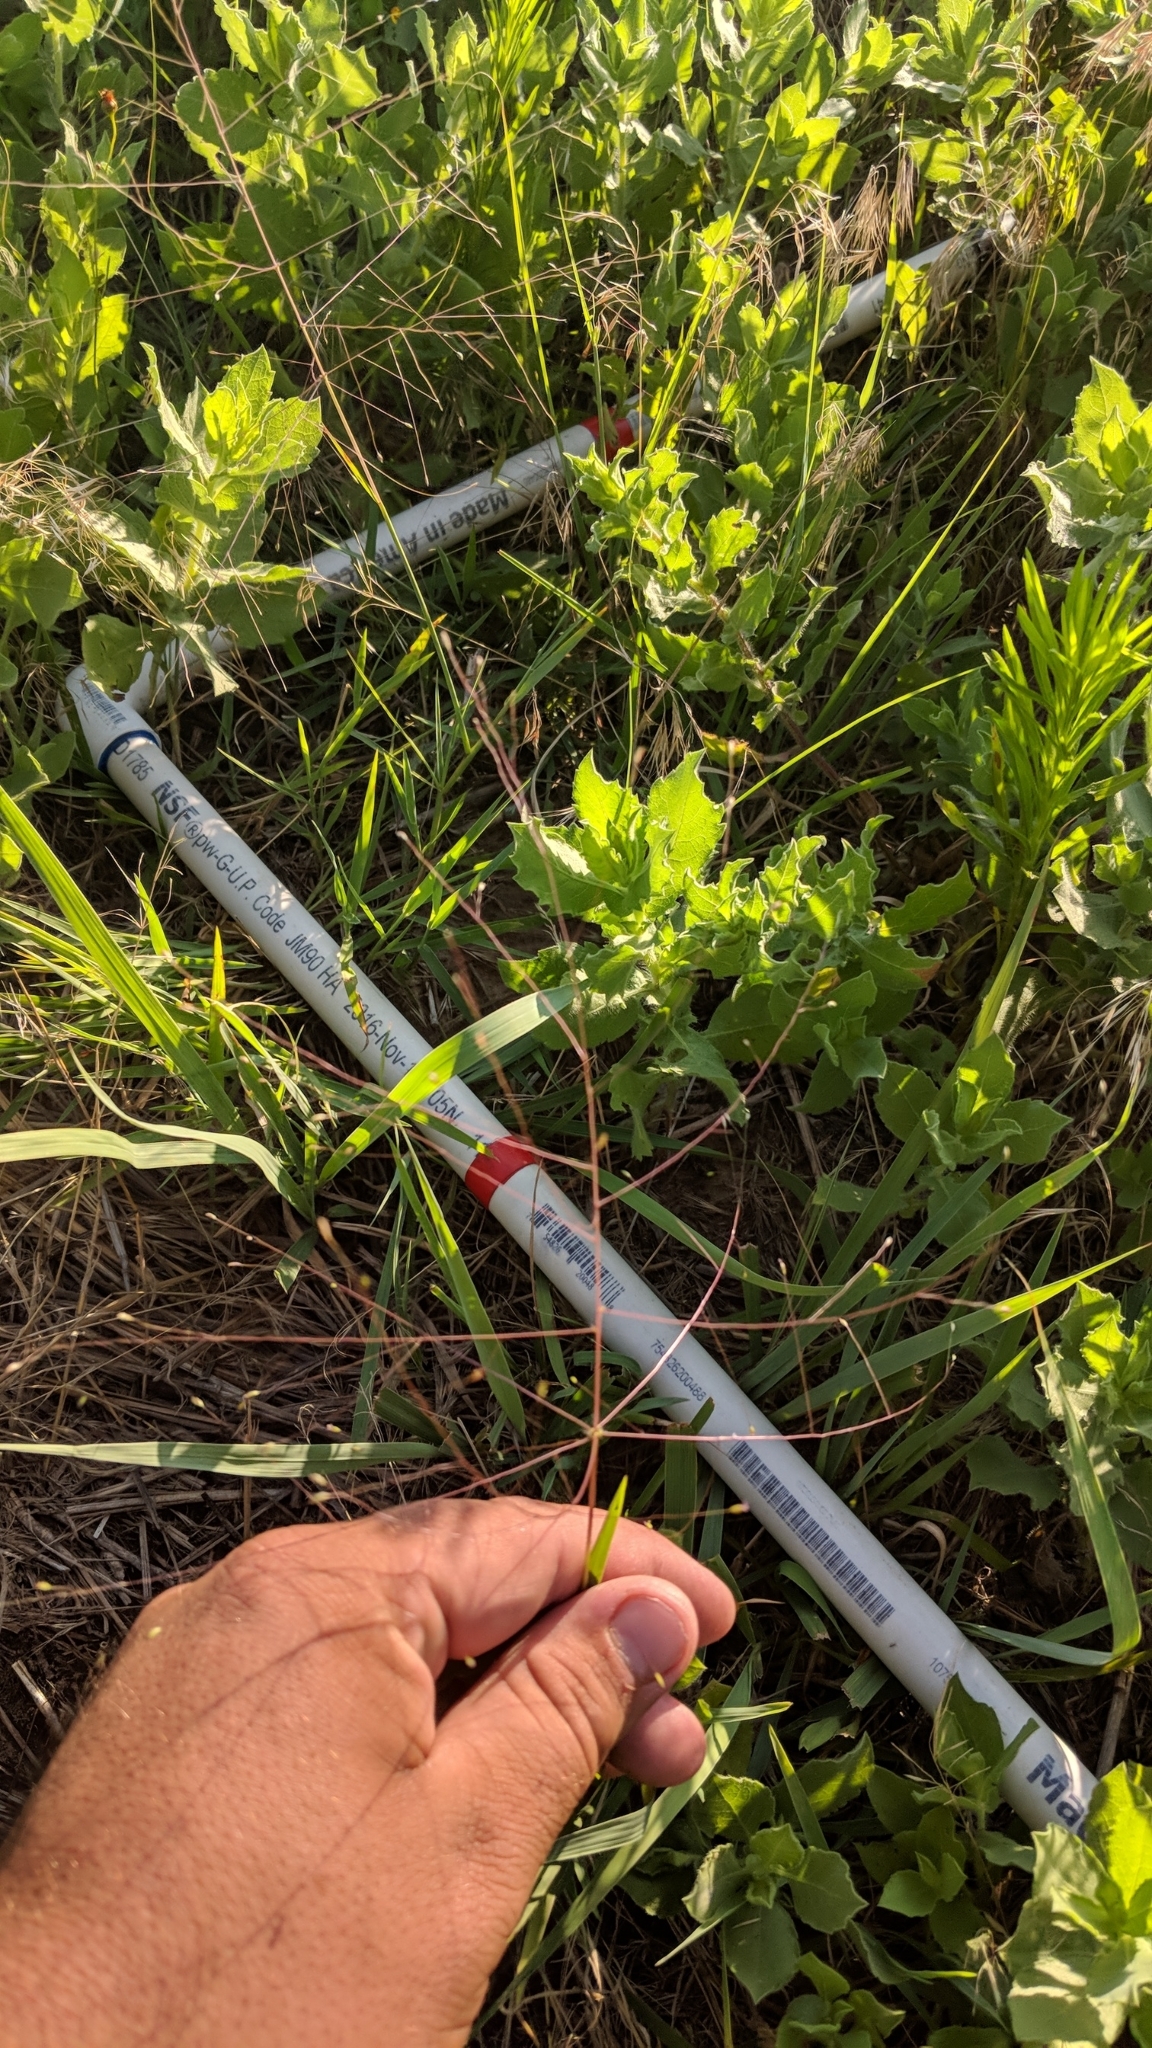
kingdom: Plantae
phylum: Tracheophyta
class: Liliopsida
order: Poales
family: Poaceae
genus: Digitaria
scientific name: Digitaria cognata
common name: Fall witchgrass
